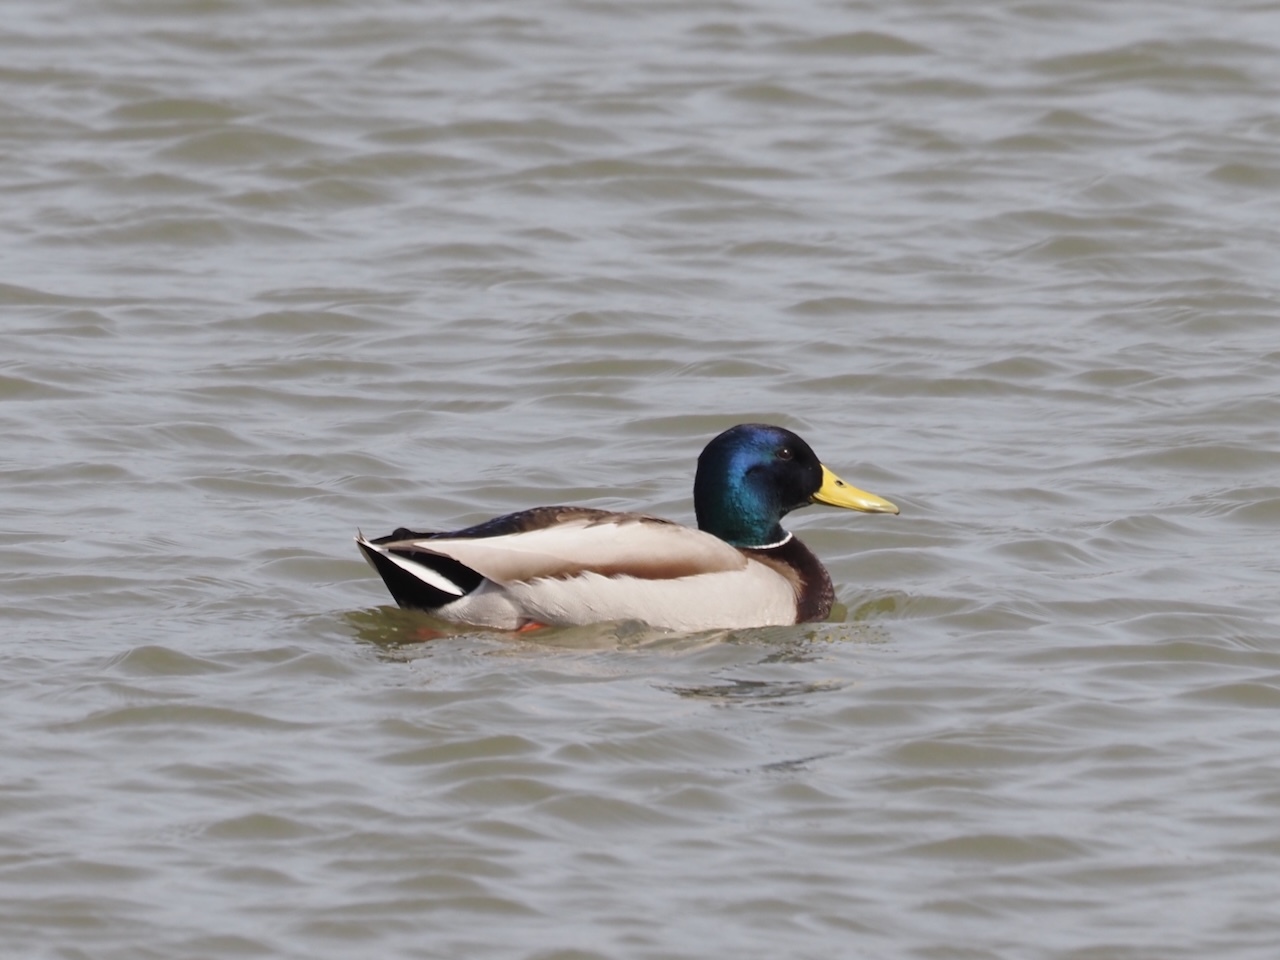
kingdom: Animalia
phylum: Chordata
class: Aves
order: Anseriformes
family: Anatidae
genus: Anas
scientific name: Anas platyrhynchos
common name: Mallard
